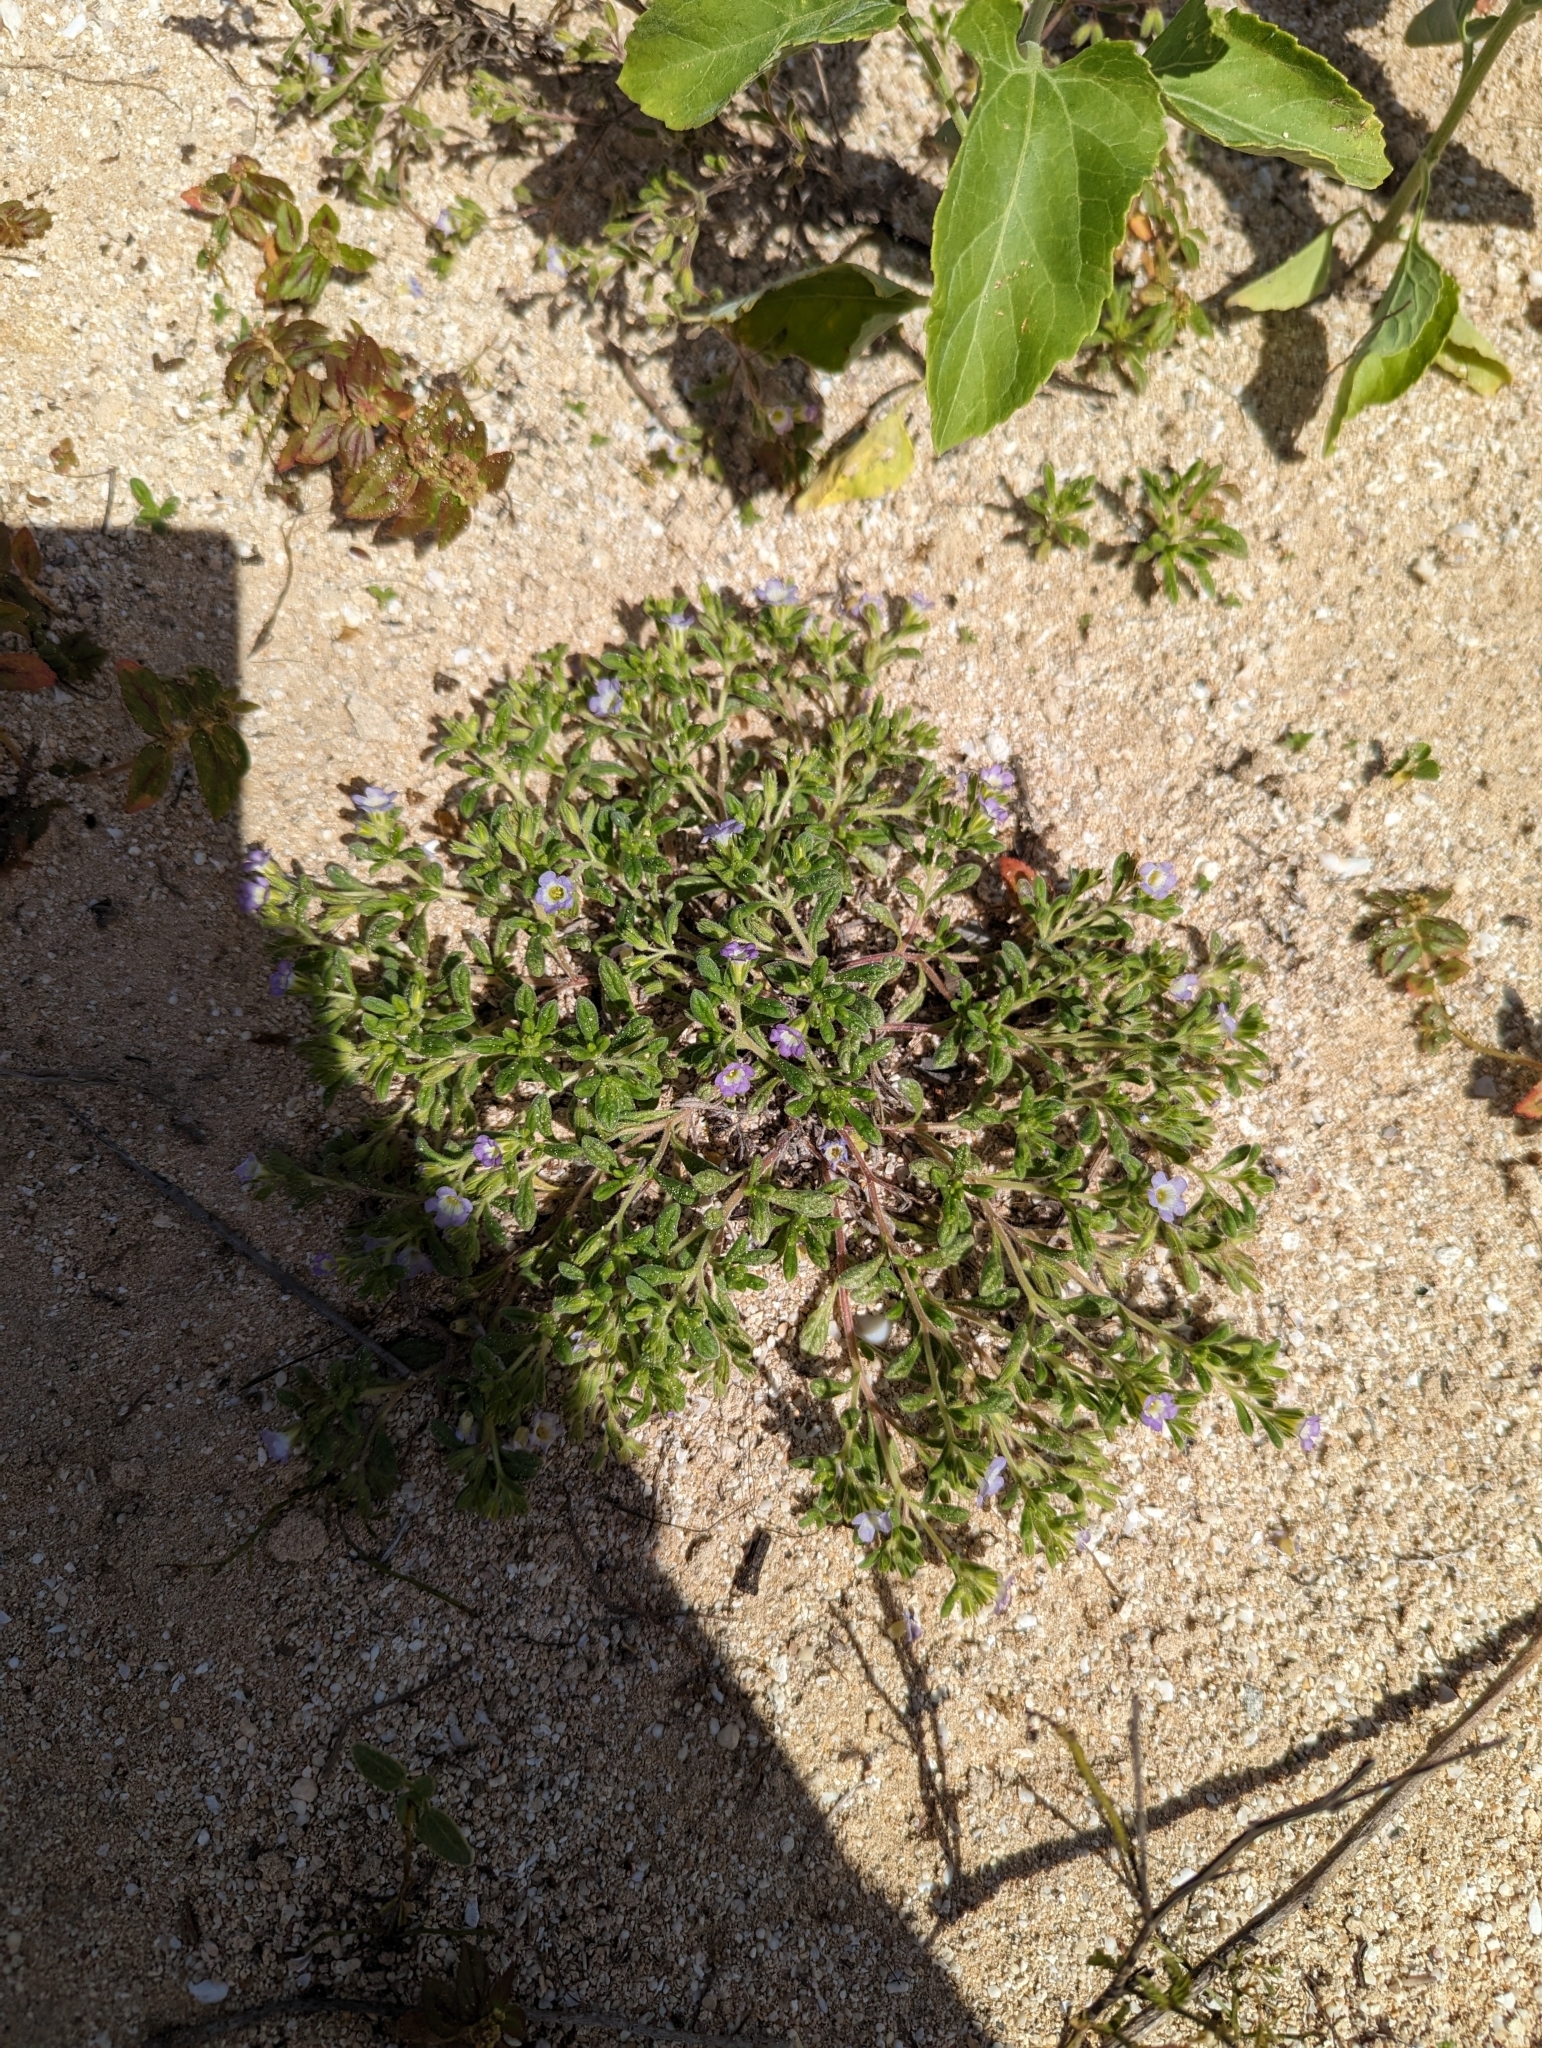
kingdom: Plantae
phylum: Tracheophyta
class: Magnoliopsida
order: Boraginales
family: Namaceae
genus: Nama
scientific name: Nama sandwicense
